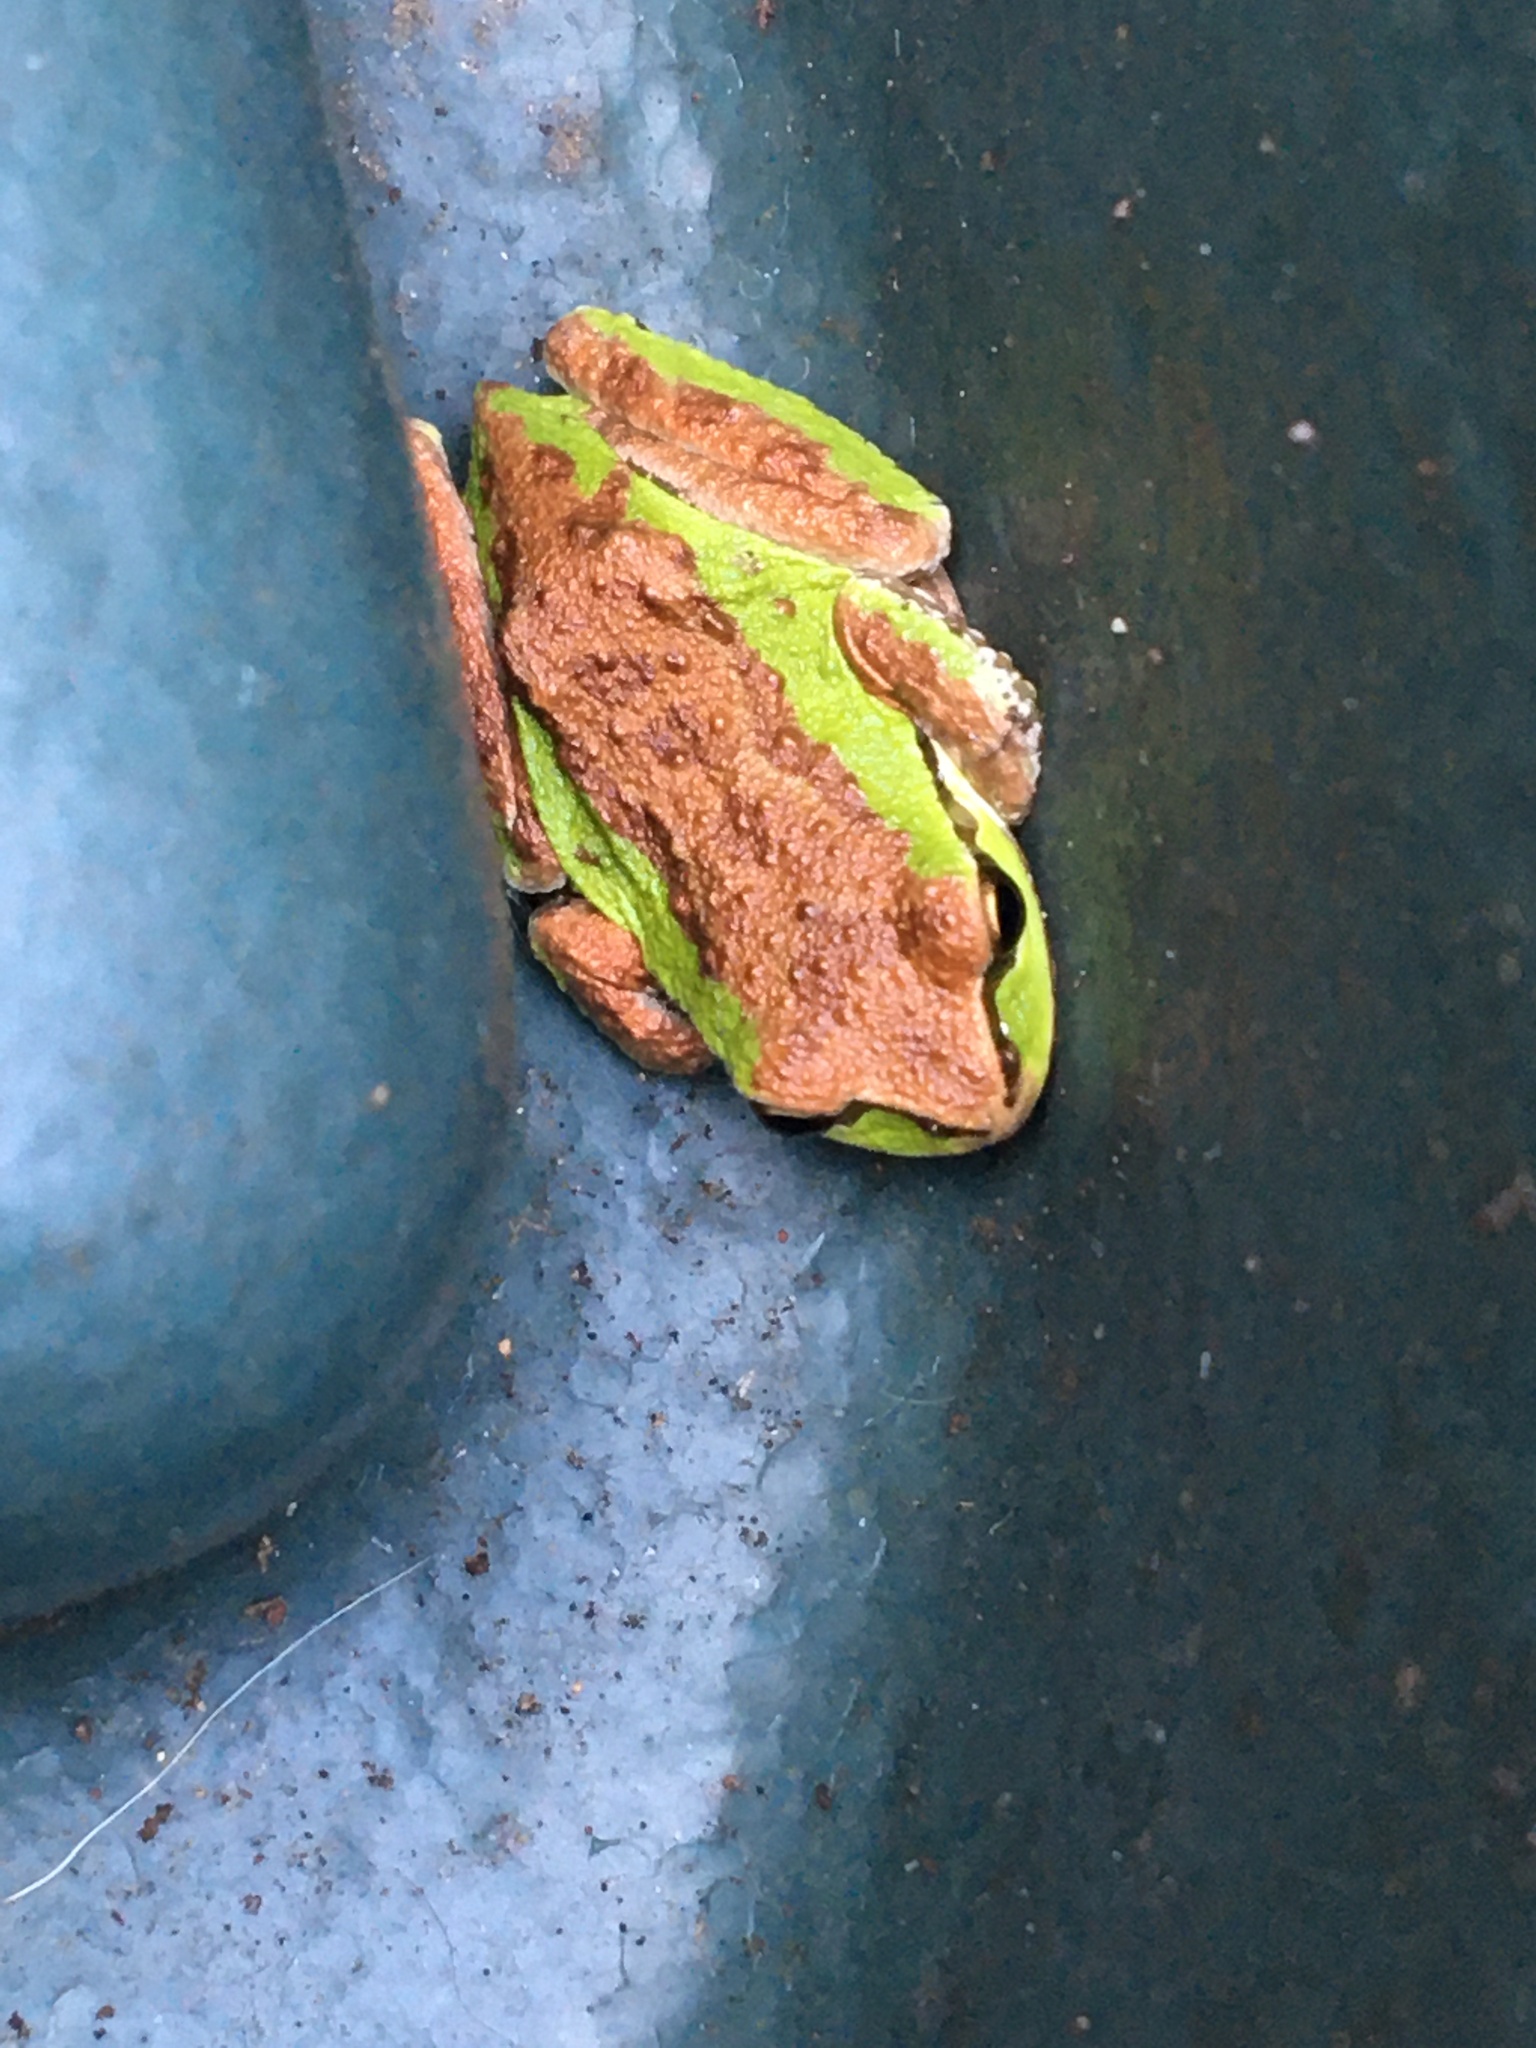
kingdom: Animalia
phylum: Chordata
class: Amphibia
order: Anura
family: Hylidae
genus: Pseudacris
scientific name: Pseudacris regilla
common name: Pacific chorus frog
